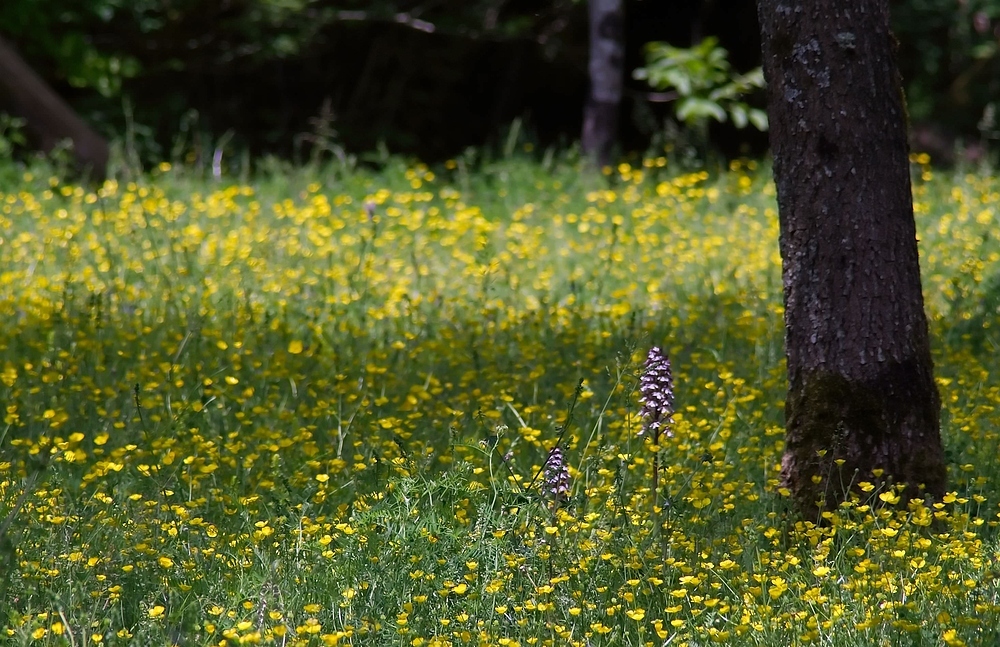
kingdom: Plantae
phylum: Tracheophyta
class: Liliopsida
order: Asparagales
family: Orchidaceae
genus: Orchis
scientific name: Orchis purpurea
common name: Lady orchid
